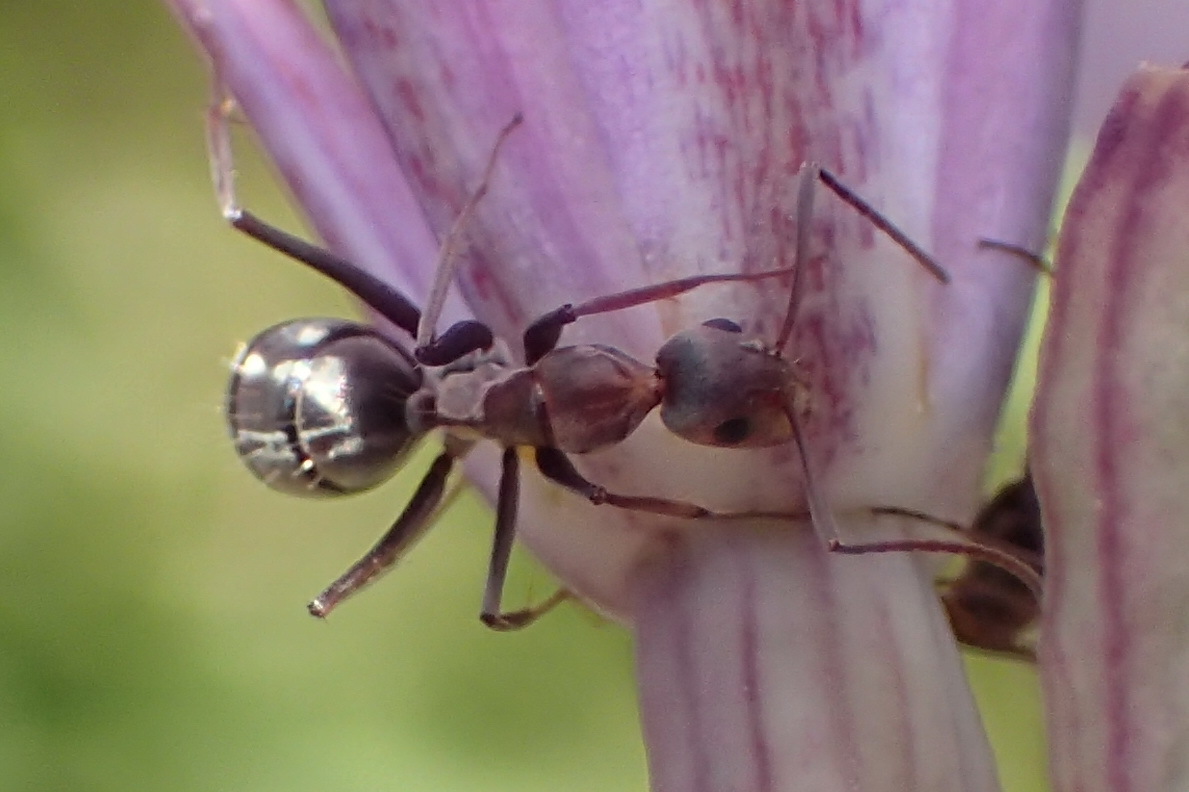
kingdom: Animalia
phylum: Arthropoda
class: Insecta
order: Hymenoptera
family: Formicidae
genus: Camponotus
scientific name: Camponotus vestitus
